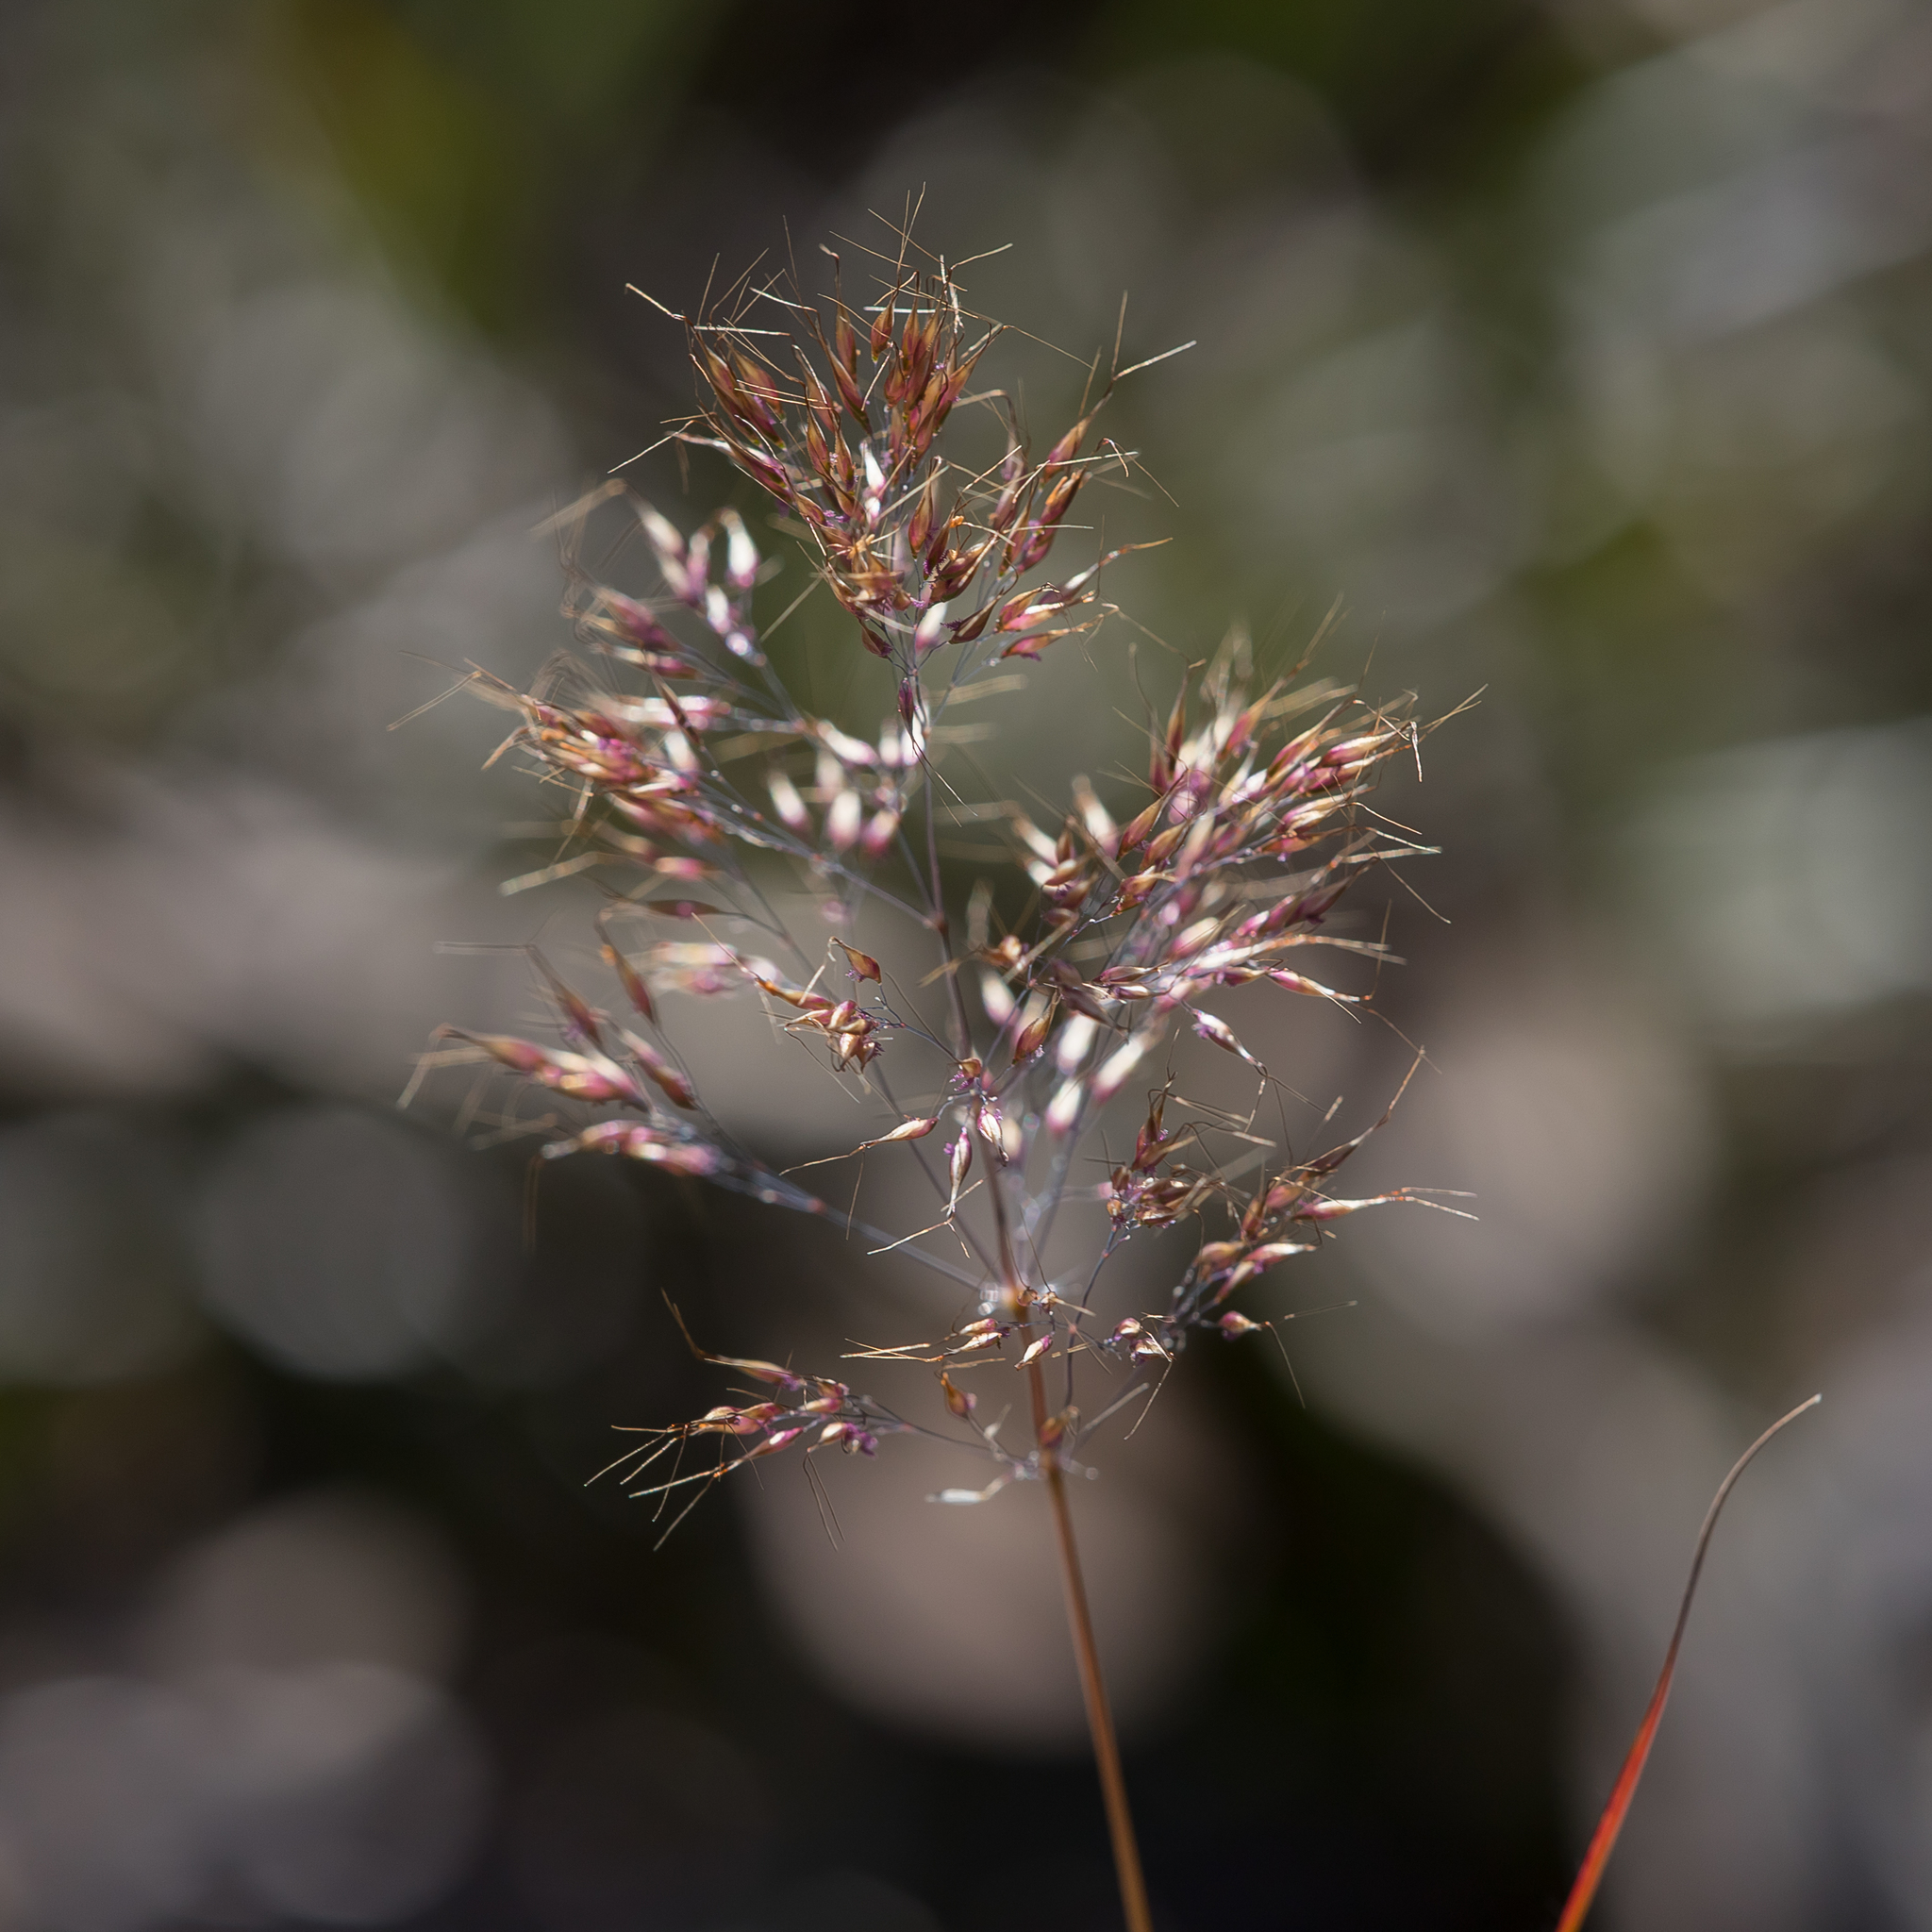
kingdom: Plantae
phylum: Tracheophyta
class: Liliopsida
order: Poales
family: Poaceae
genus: Pentameris
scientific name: Pentameris pallida
